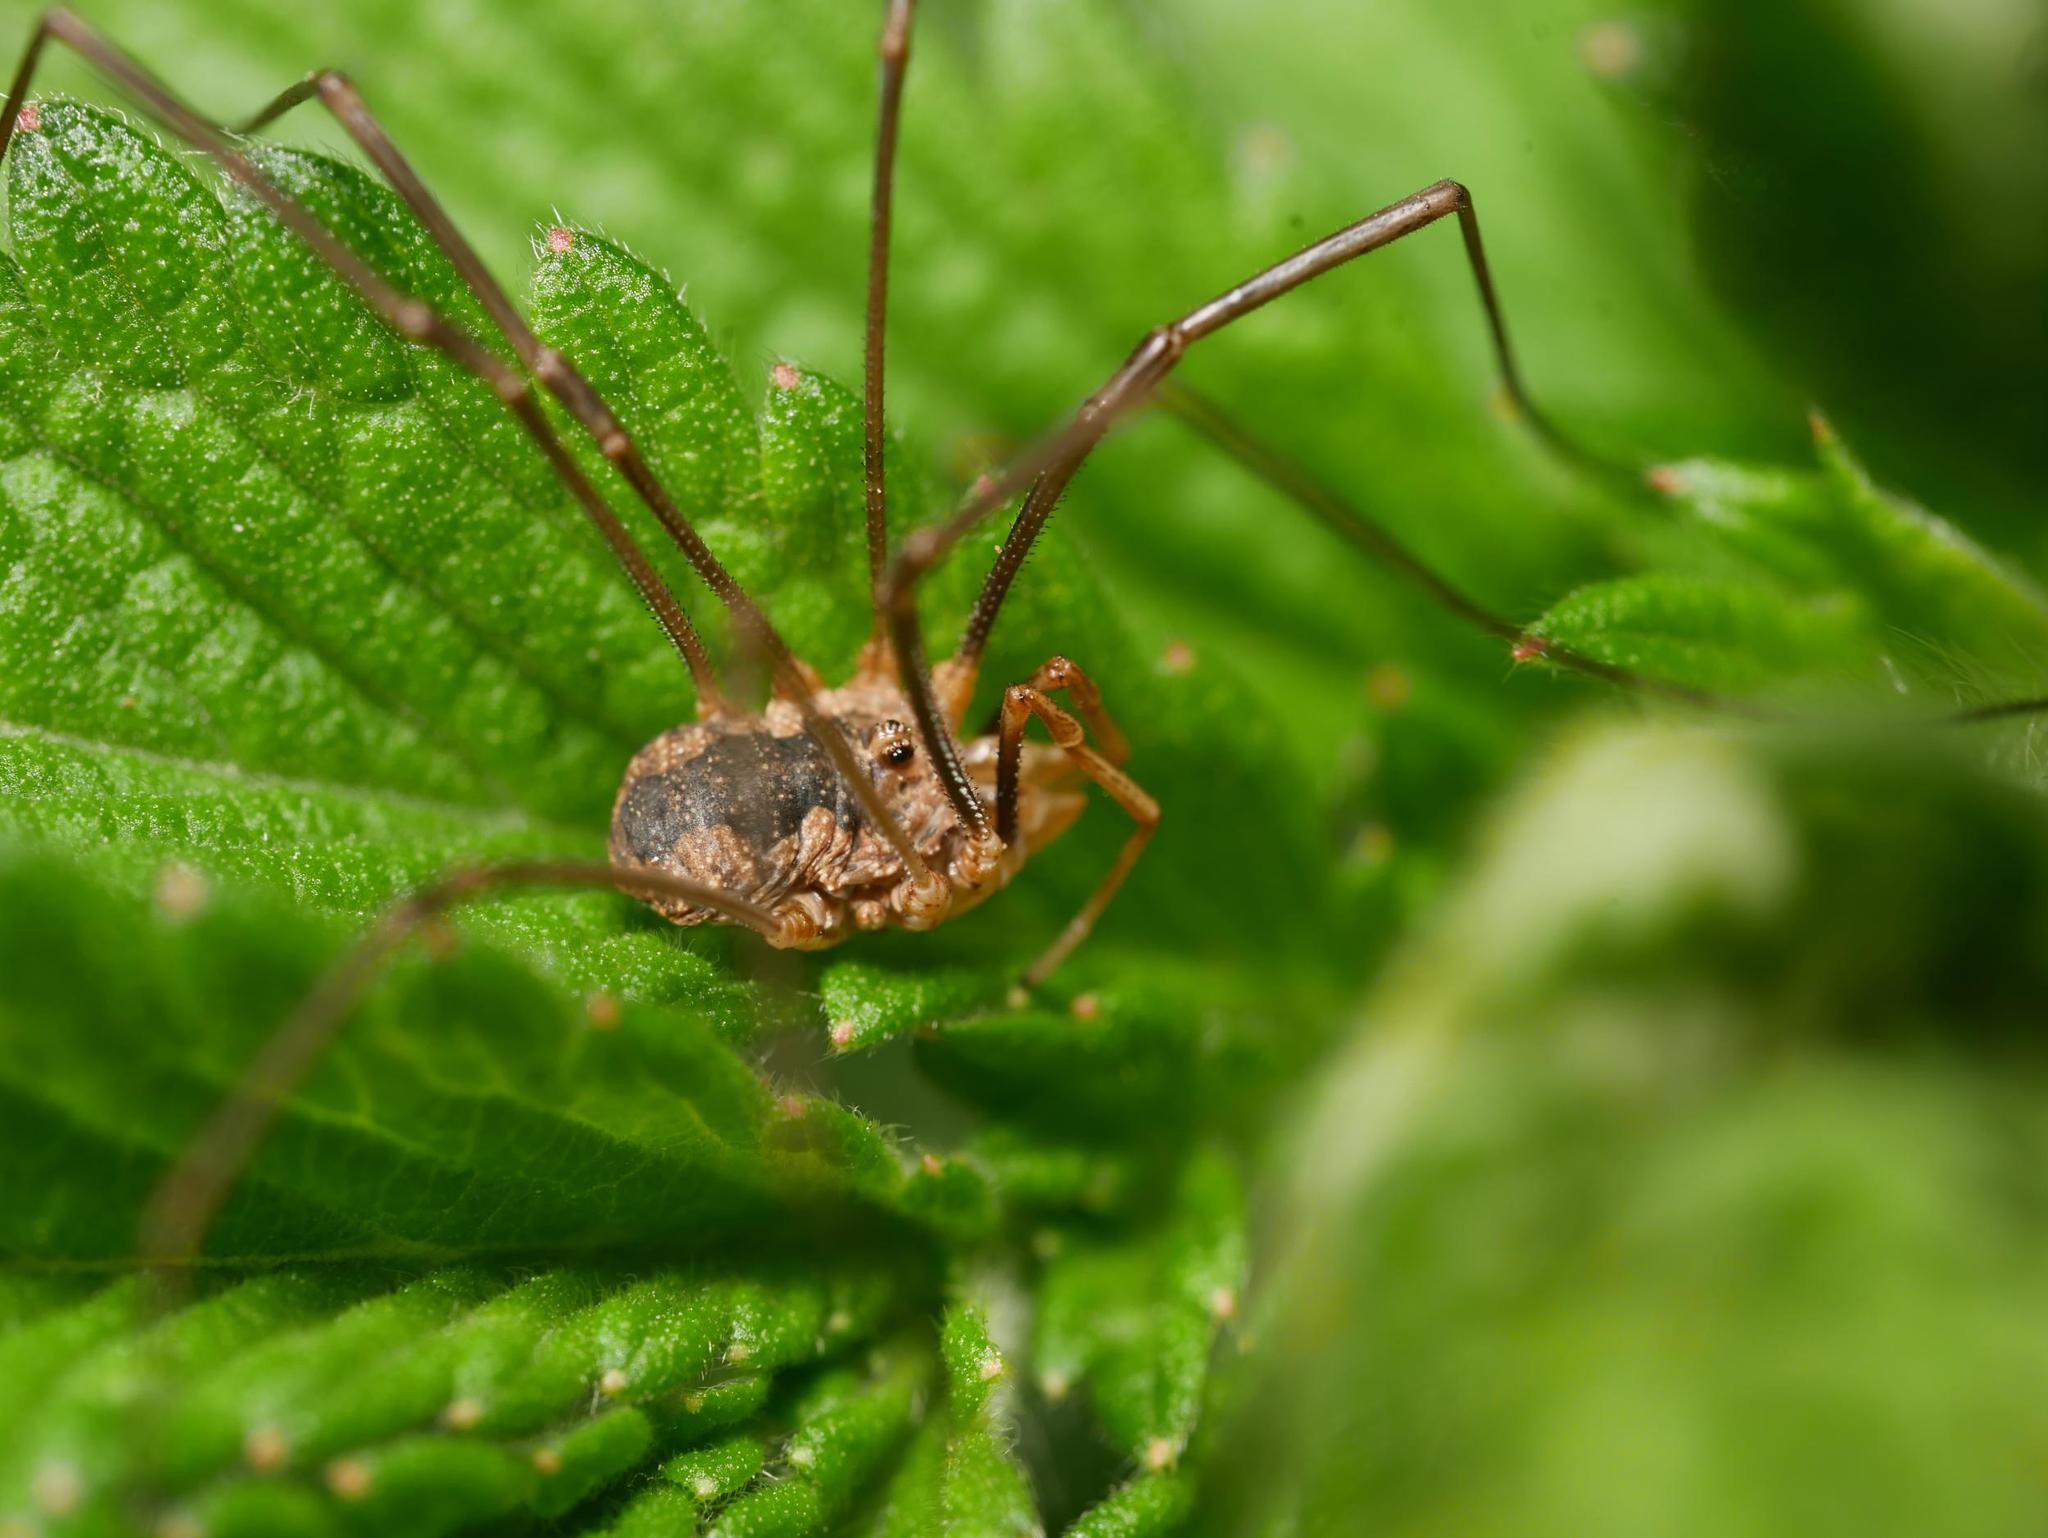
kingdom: Animalia
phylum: Arthropoda
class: Arachnida
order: Opiliones
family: Phalangiidae
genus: Phalangium
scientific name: Phalangium opilio
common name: Daddy longleg
